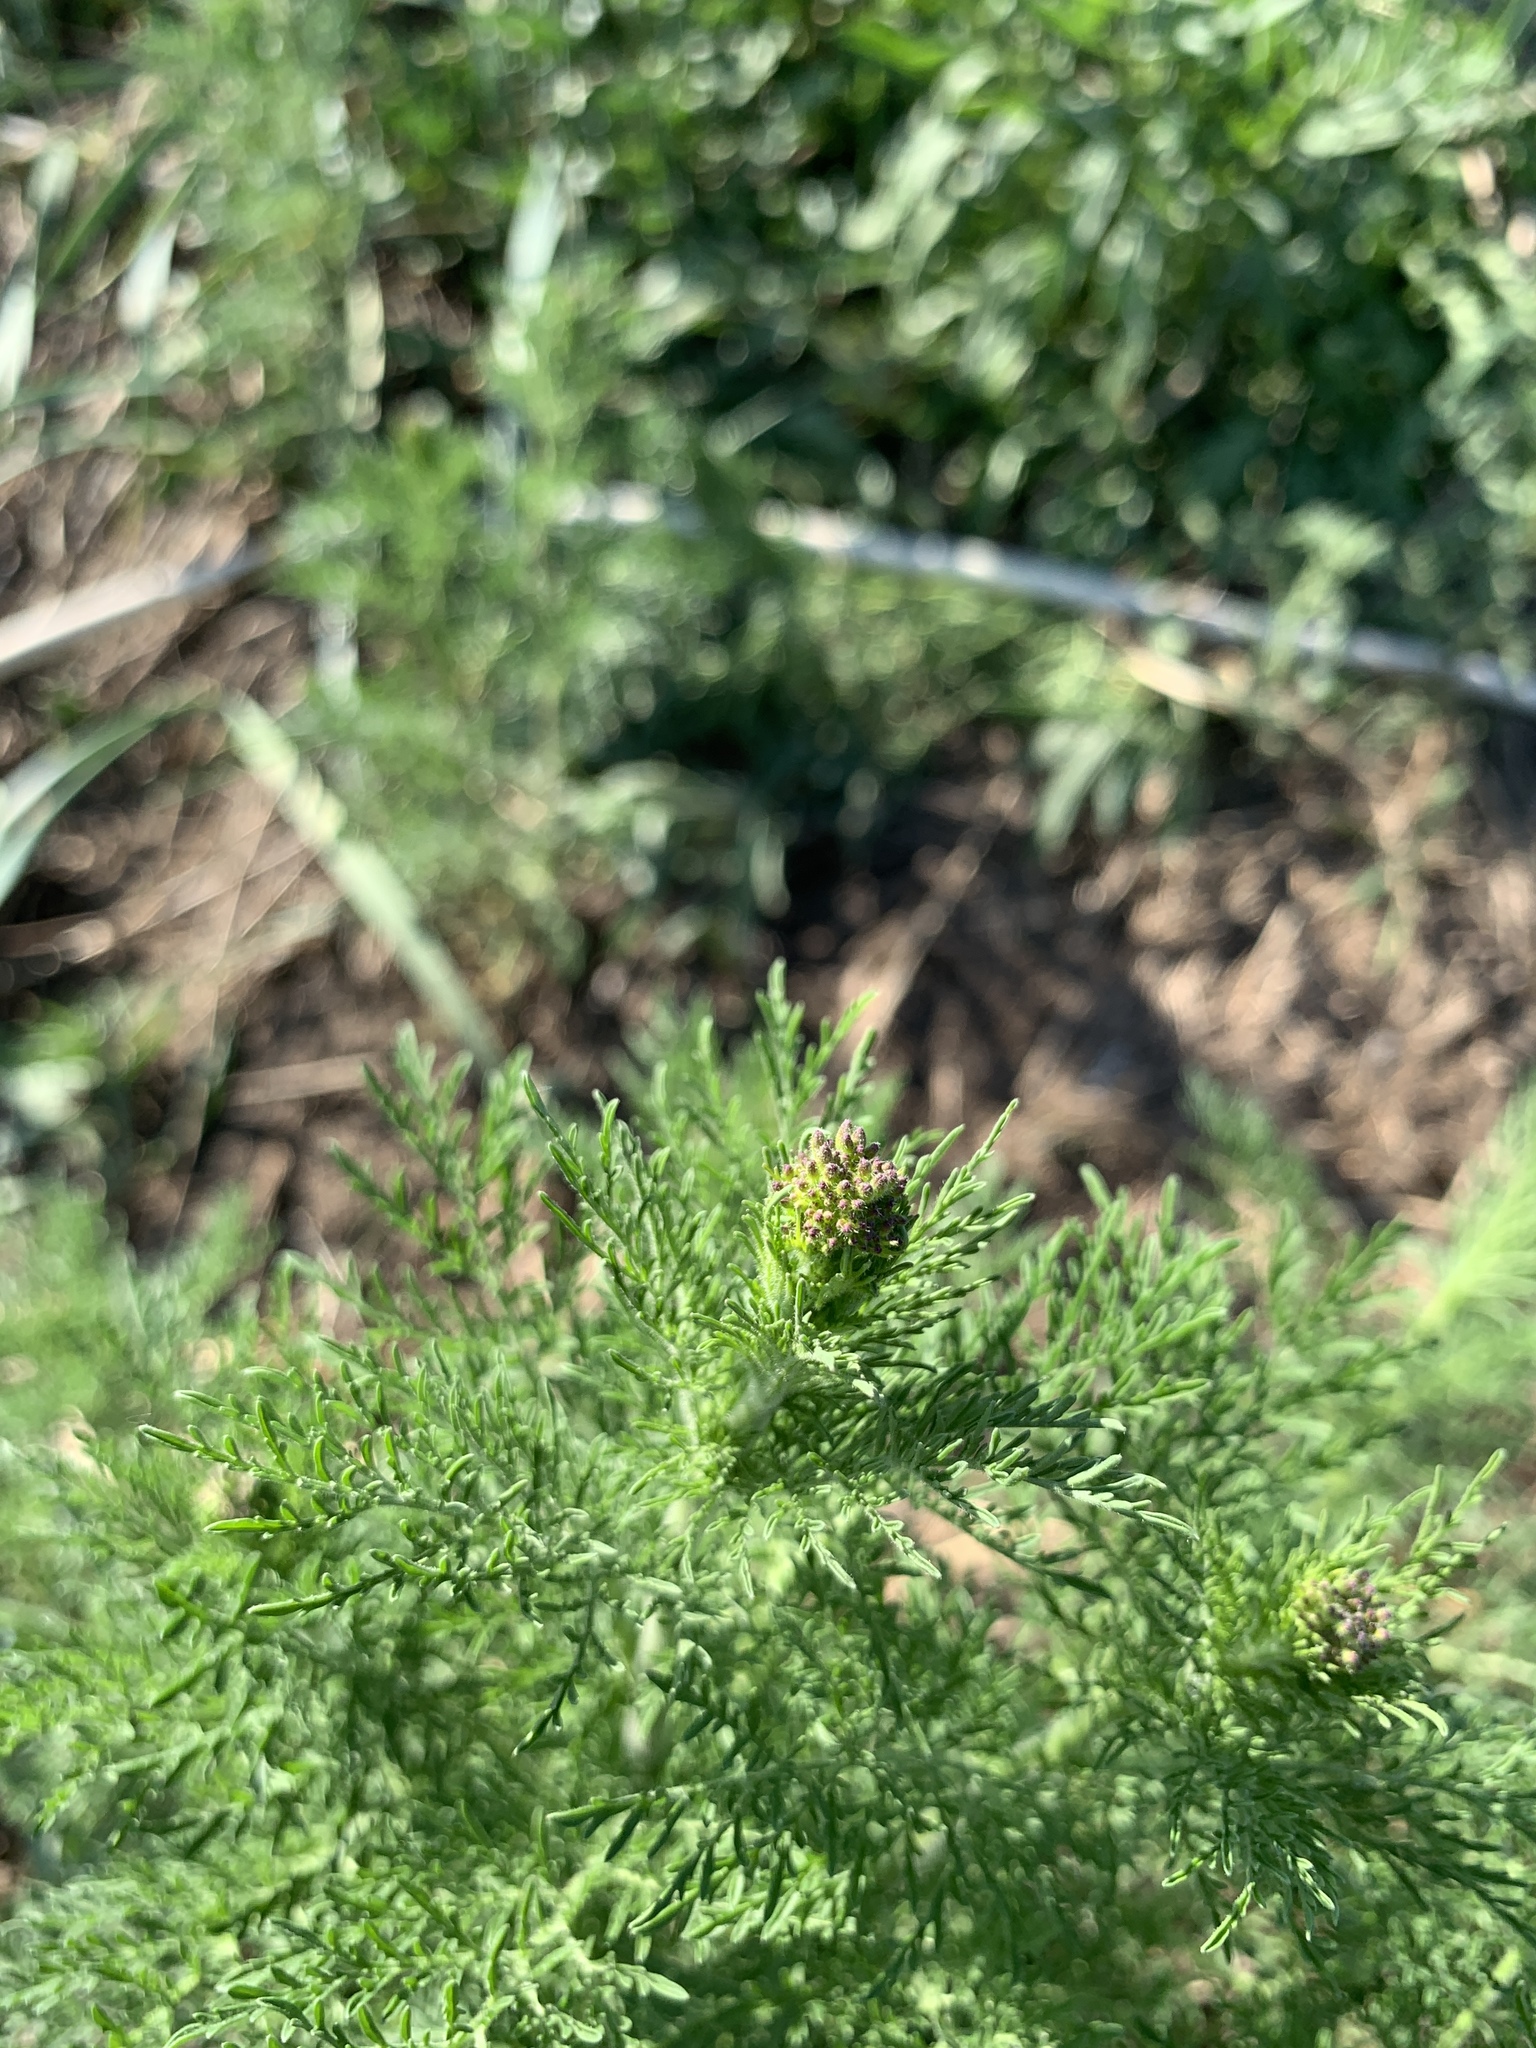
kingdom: Plantae
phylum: Tracheophyta
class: Magnoliopsida
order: Brassicales
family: Brassicaceae
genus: Descurainia
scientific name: Descurainia sophia
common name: Flixweed
